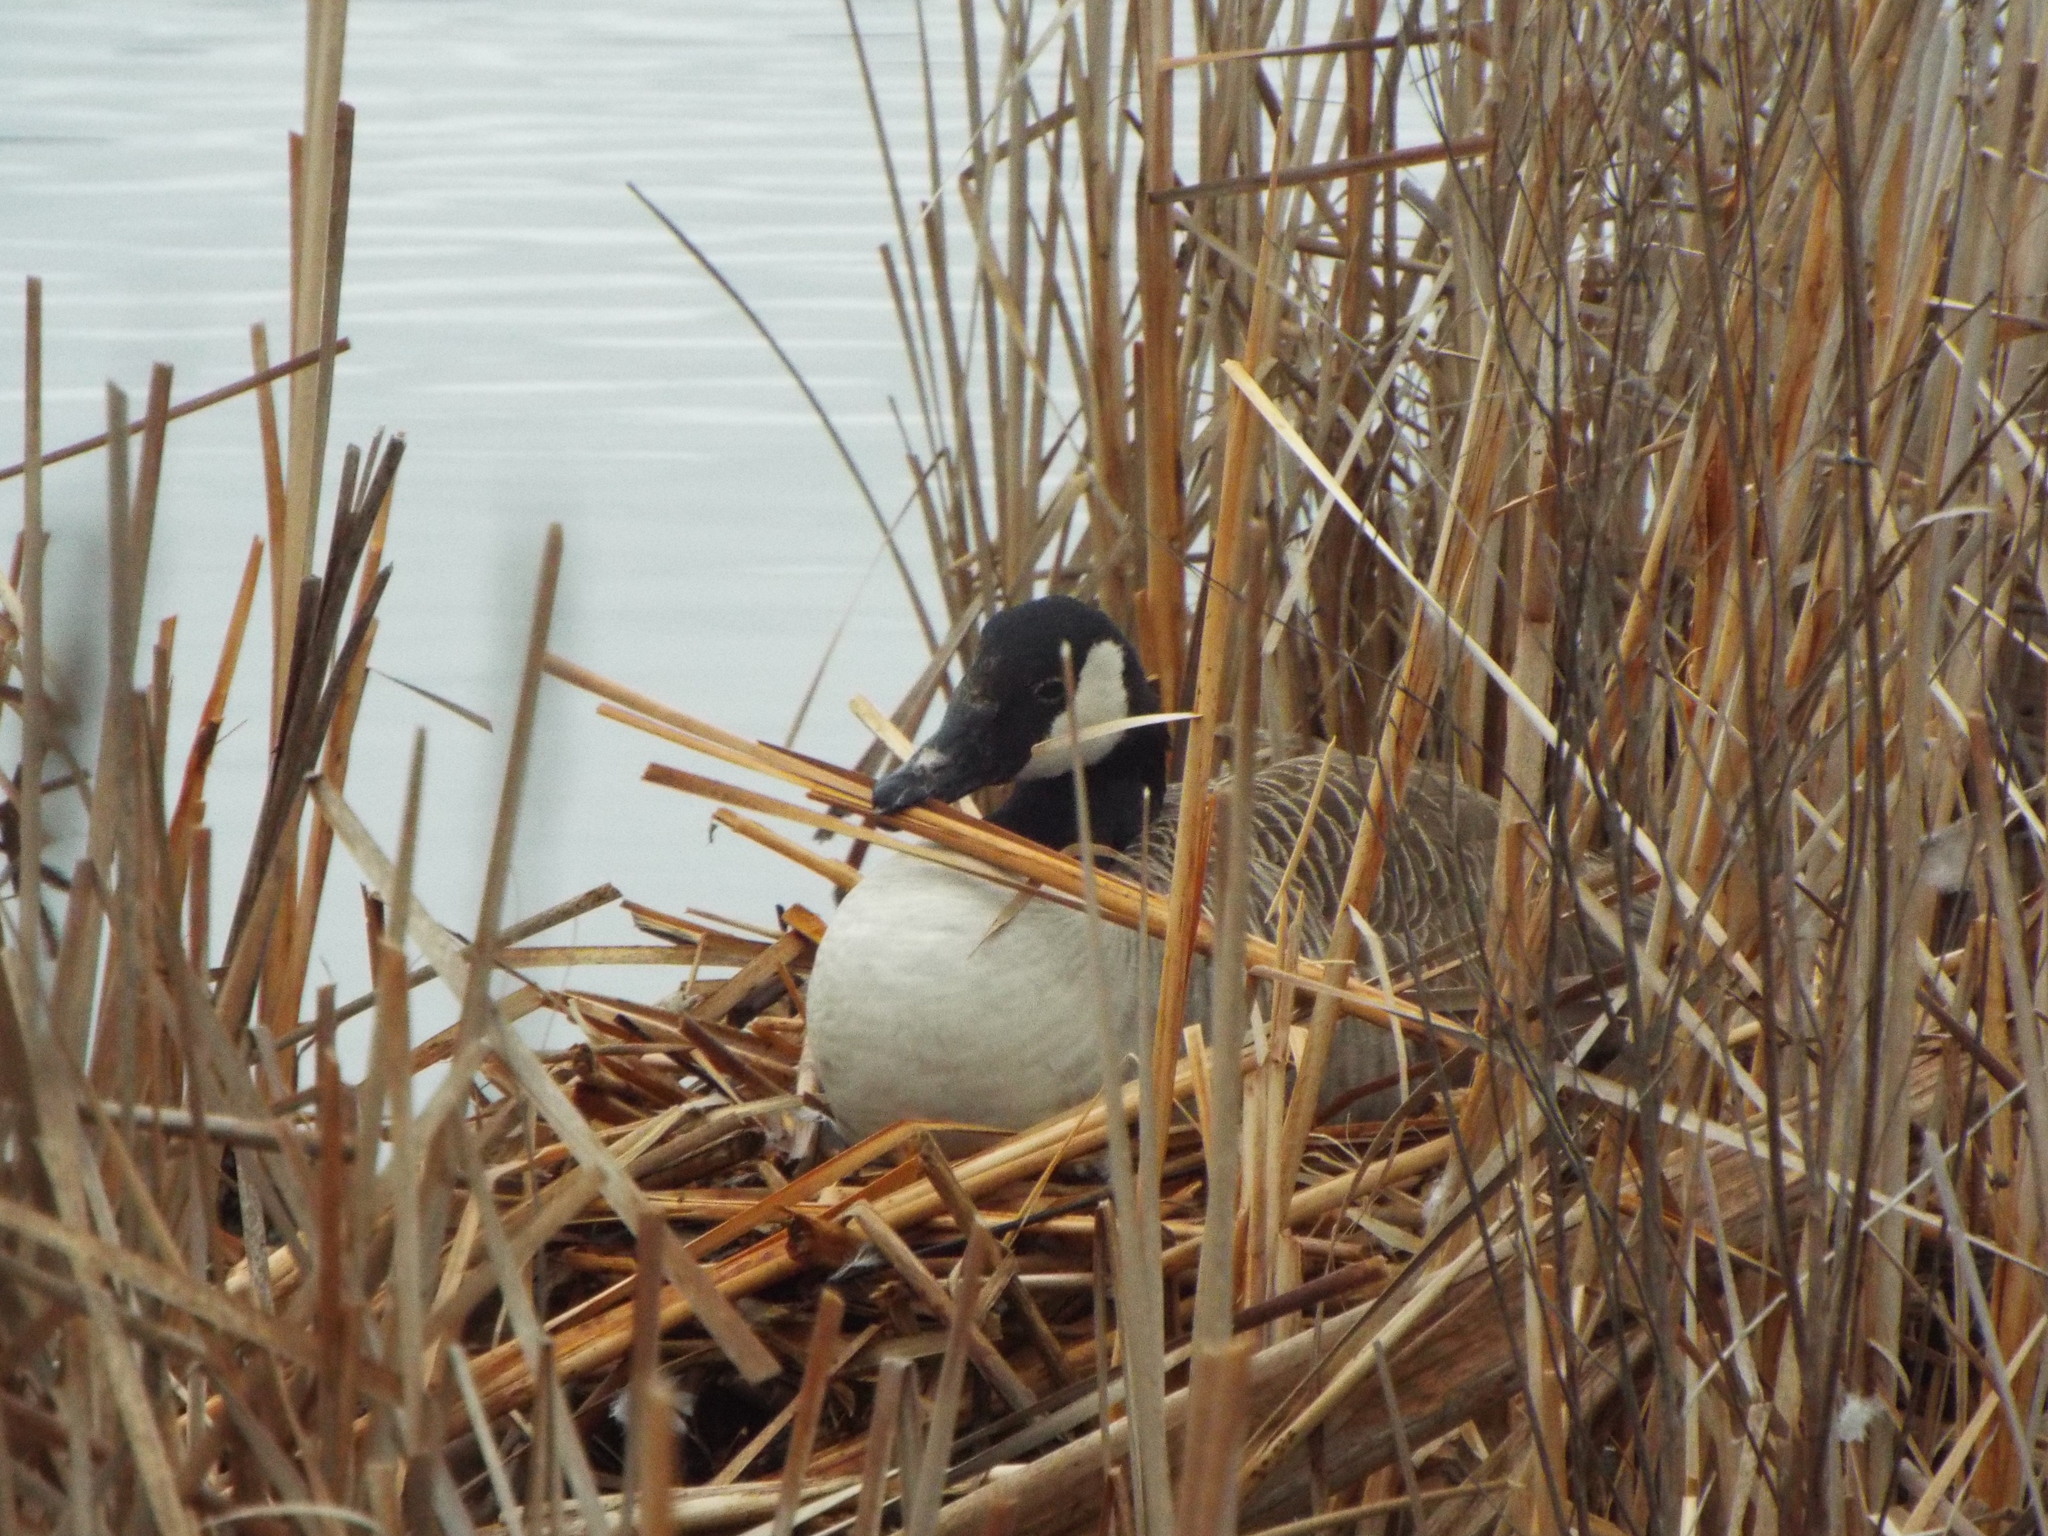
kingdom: Animalia
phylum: Chordata
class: Aves
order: Anseriformes
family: Anatidae
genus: Branta
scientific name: Branta canadensis
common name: Canada goose
